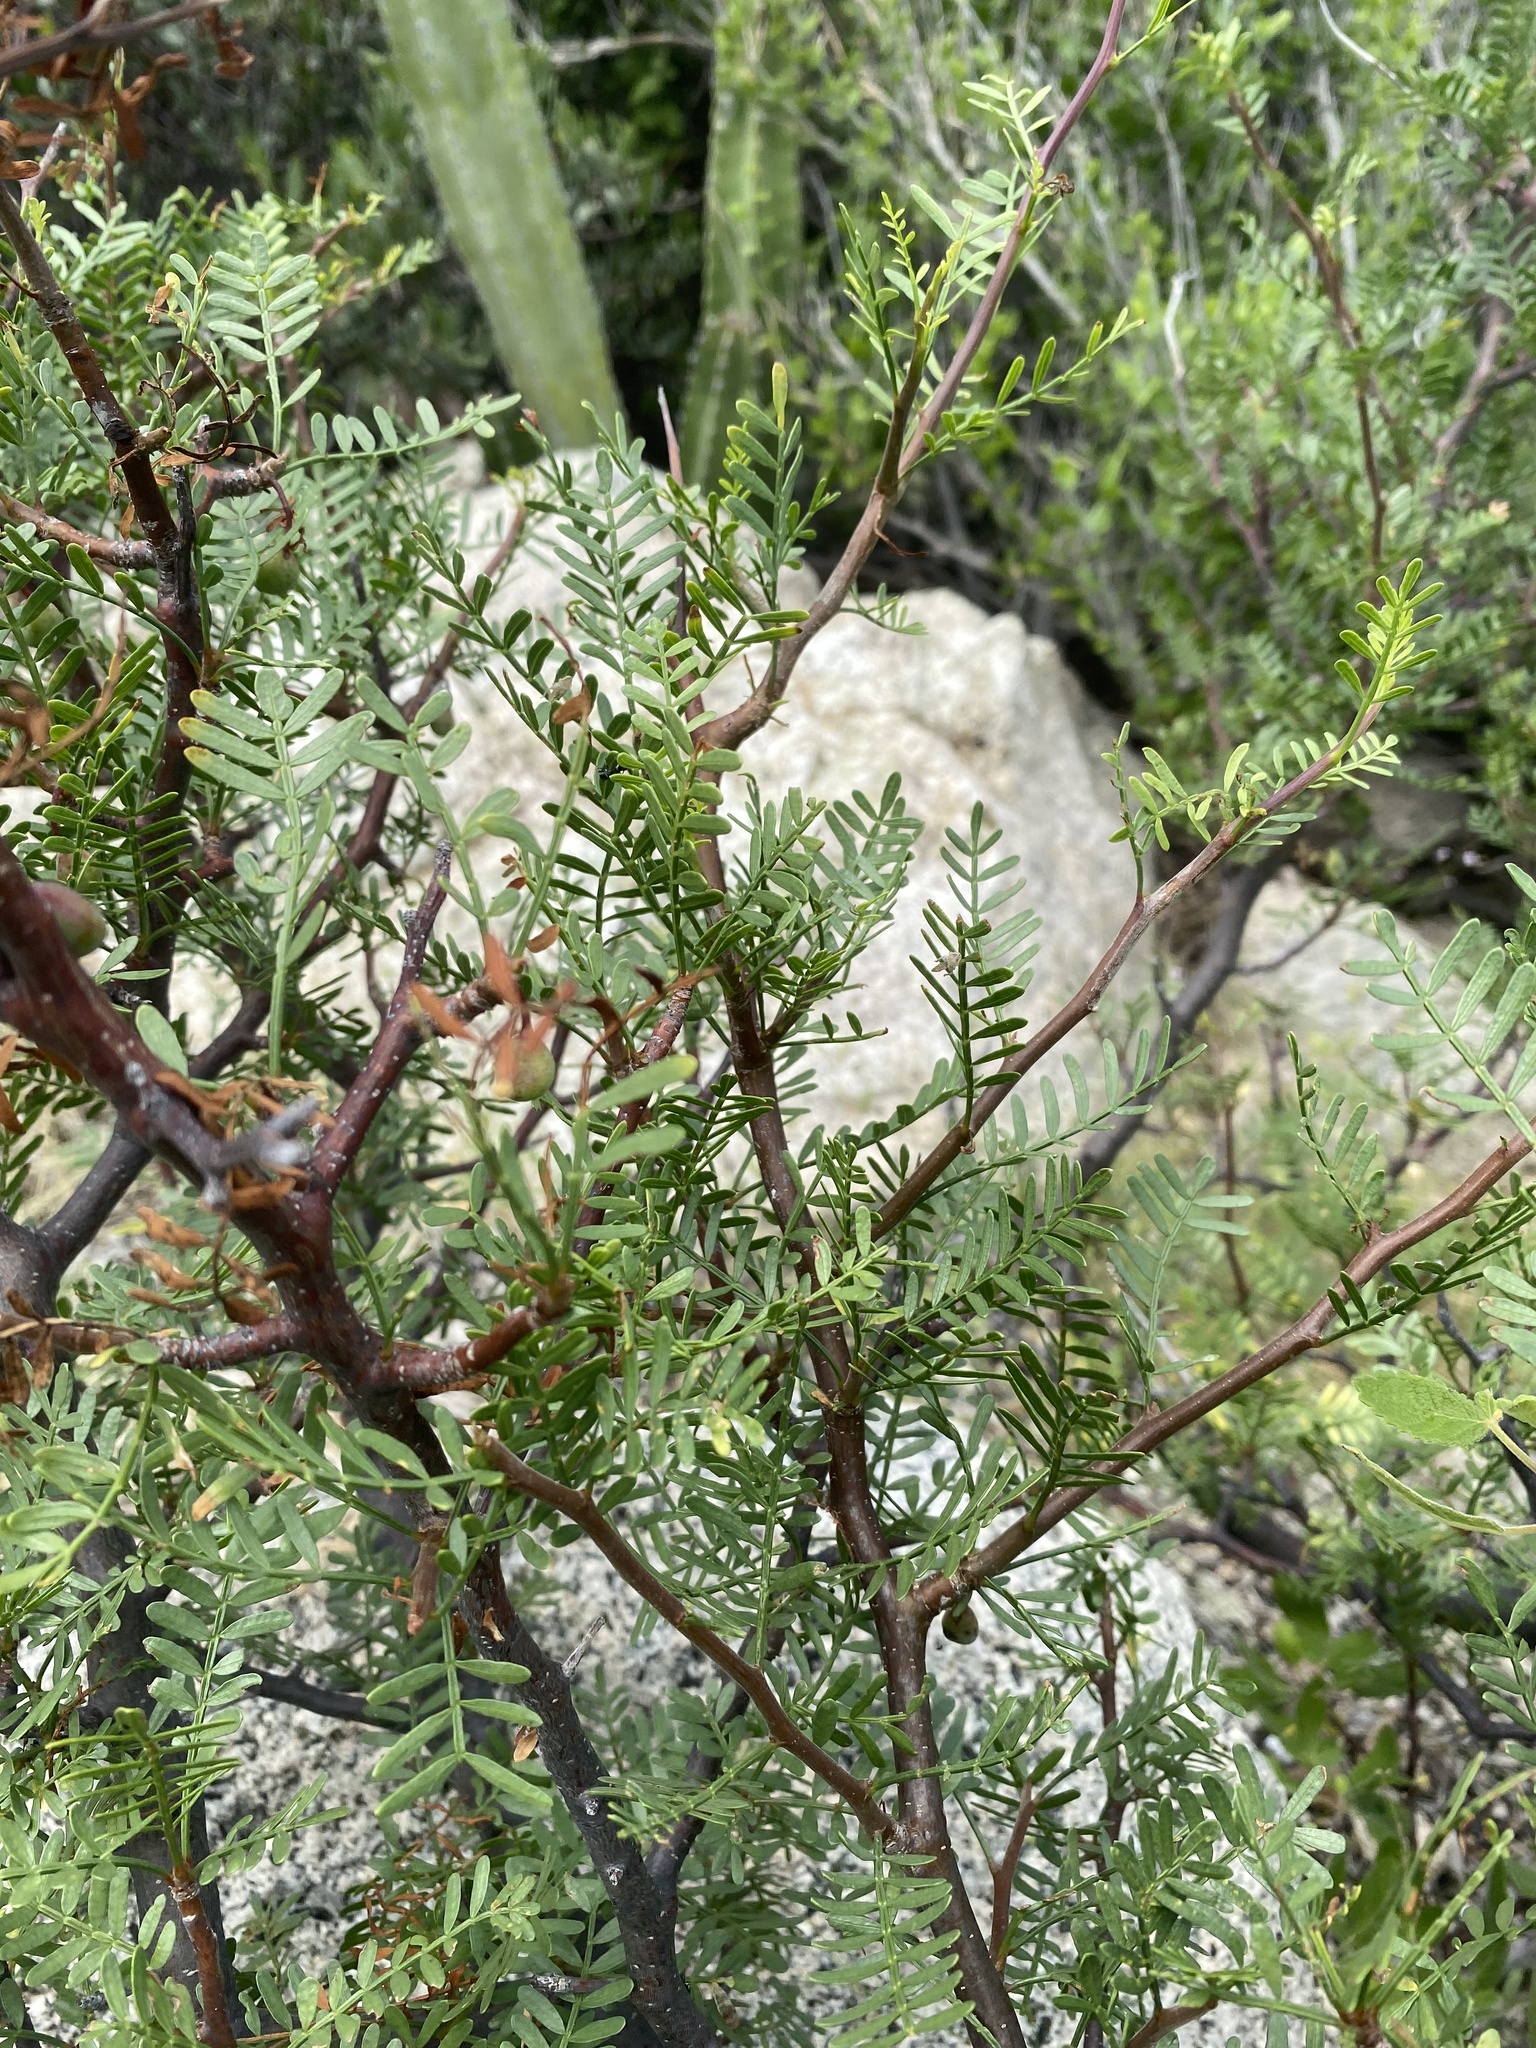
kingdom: Plantae
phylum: Tracheophyta
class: Magnoliopsida
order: Sapindales
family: Burseraceae
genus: Bursera
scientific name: Bursera microphylla
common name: Elephant tree
